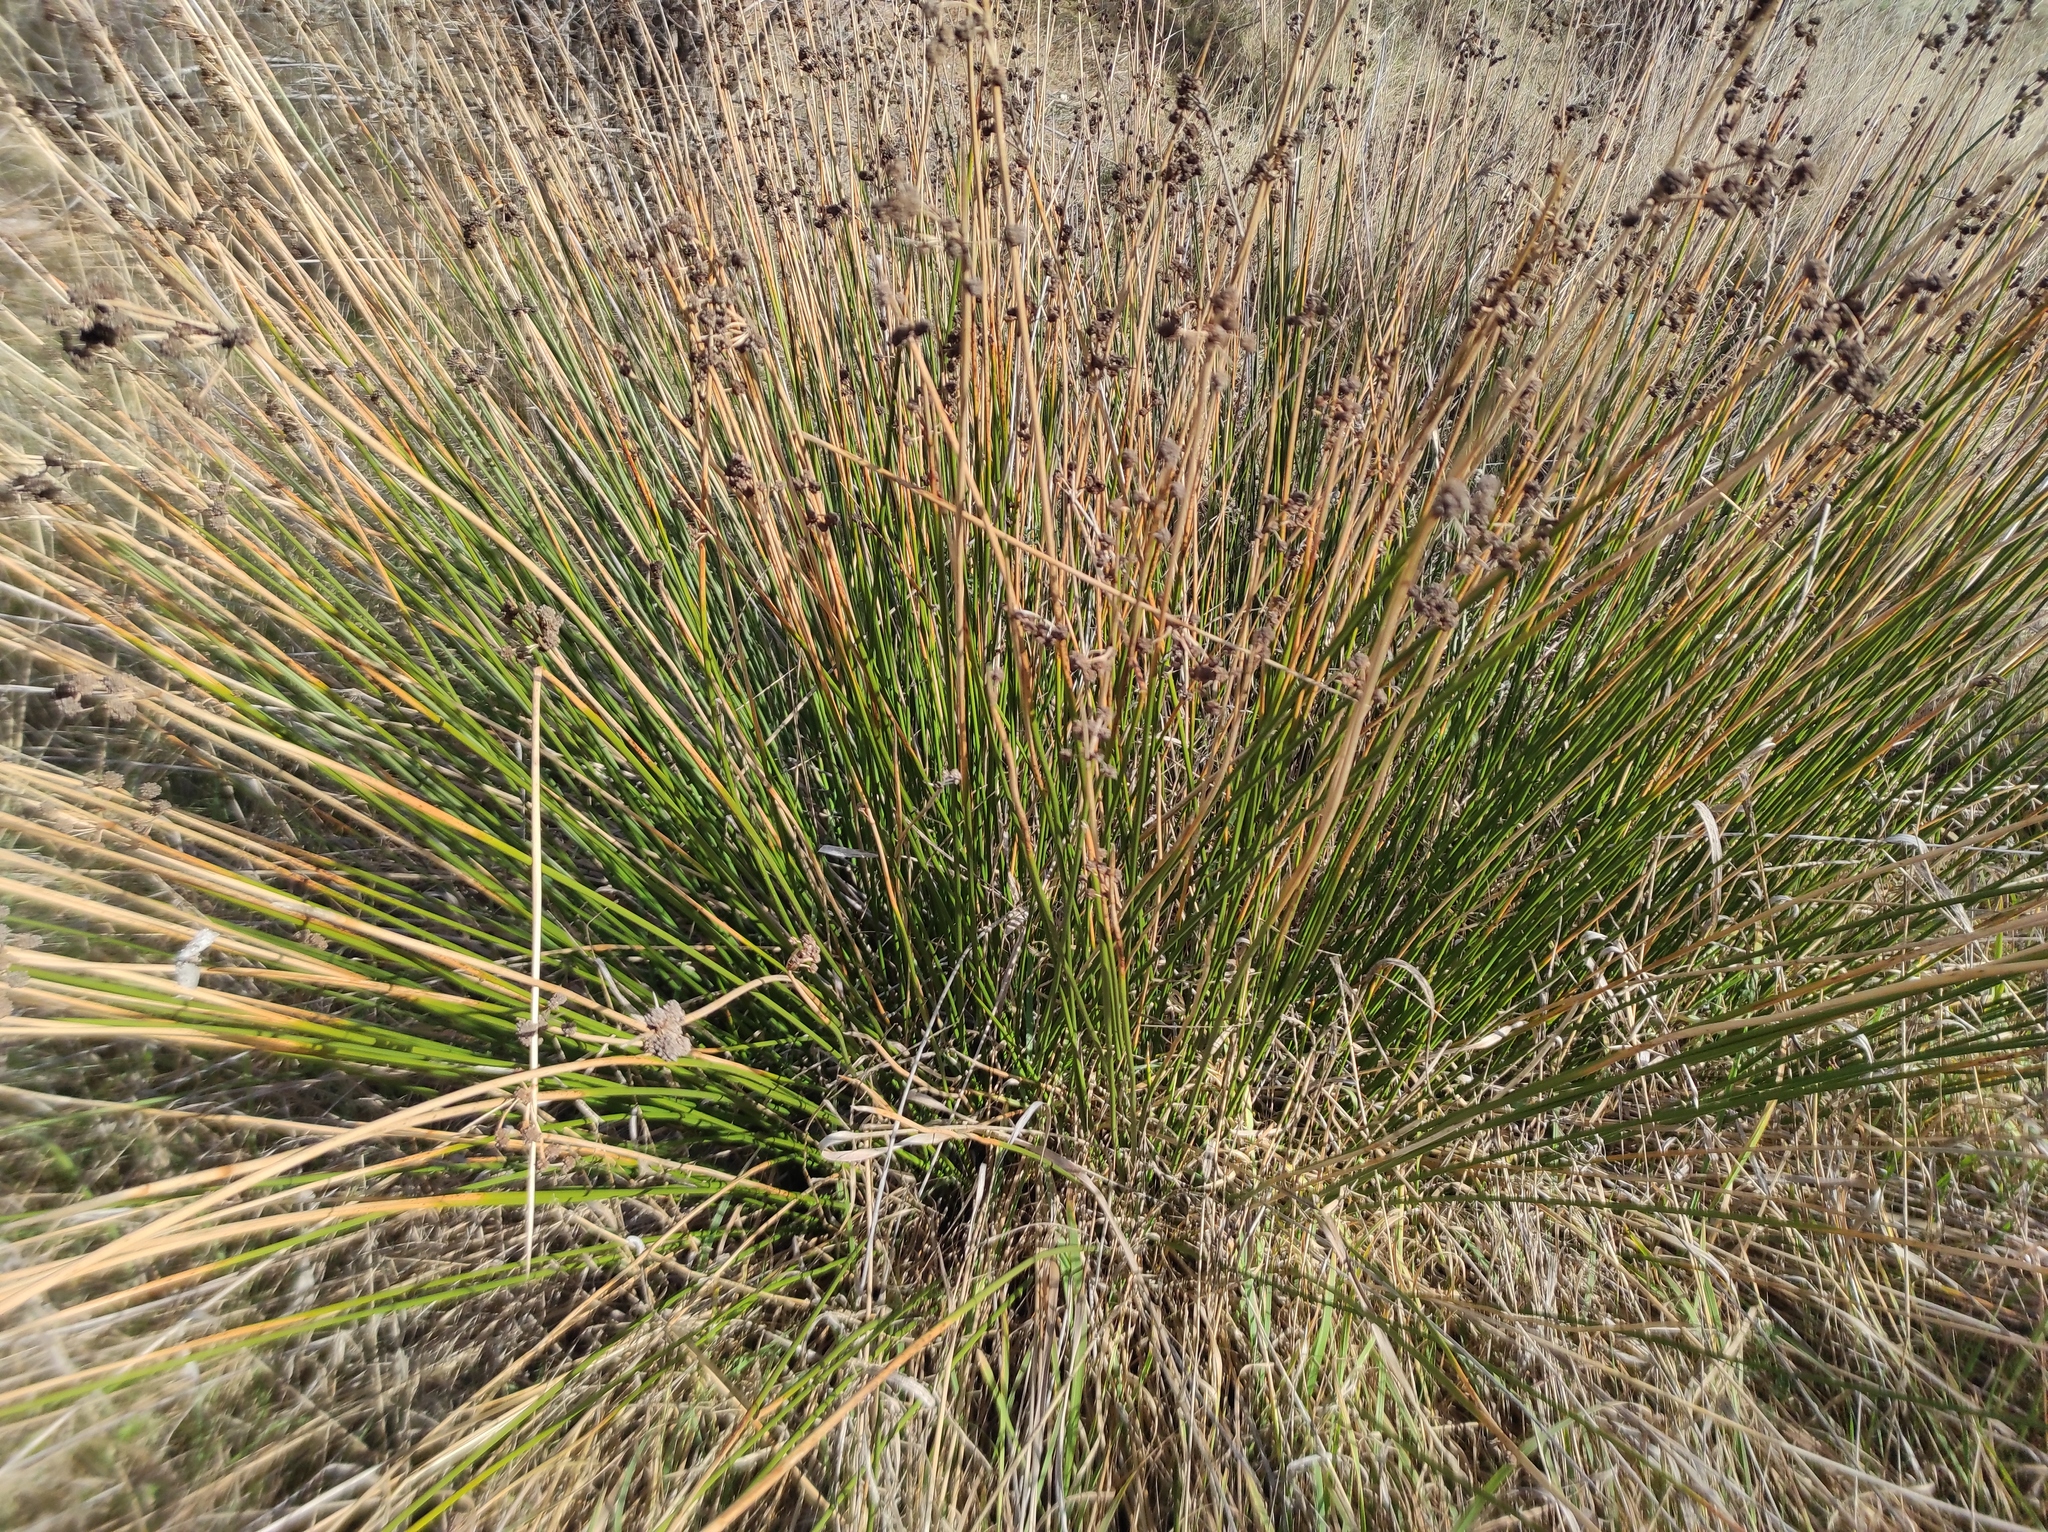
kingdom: Plantae
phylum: Tracheophyta
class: Liliopsida
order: Poales
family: Cyperaceae
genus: Scirpoides
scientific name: Scirpoides holoschoenus
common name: Round-headed club-rush
